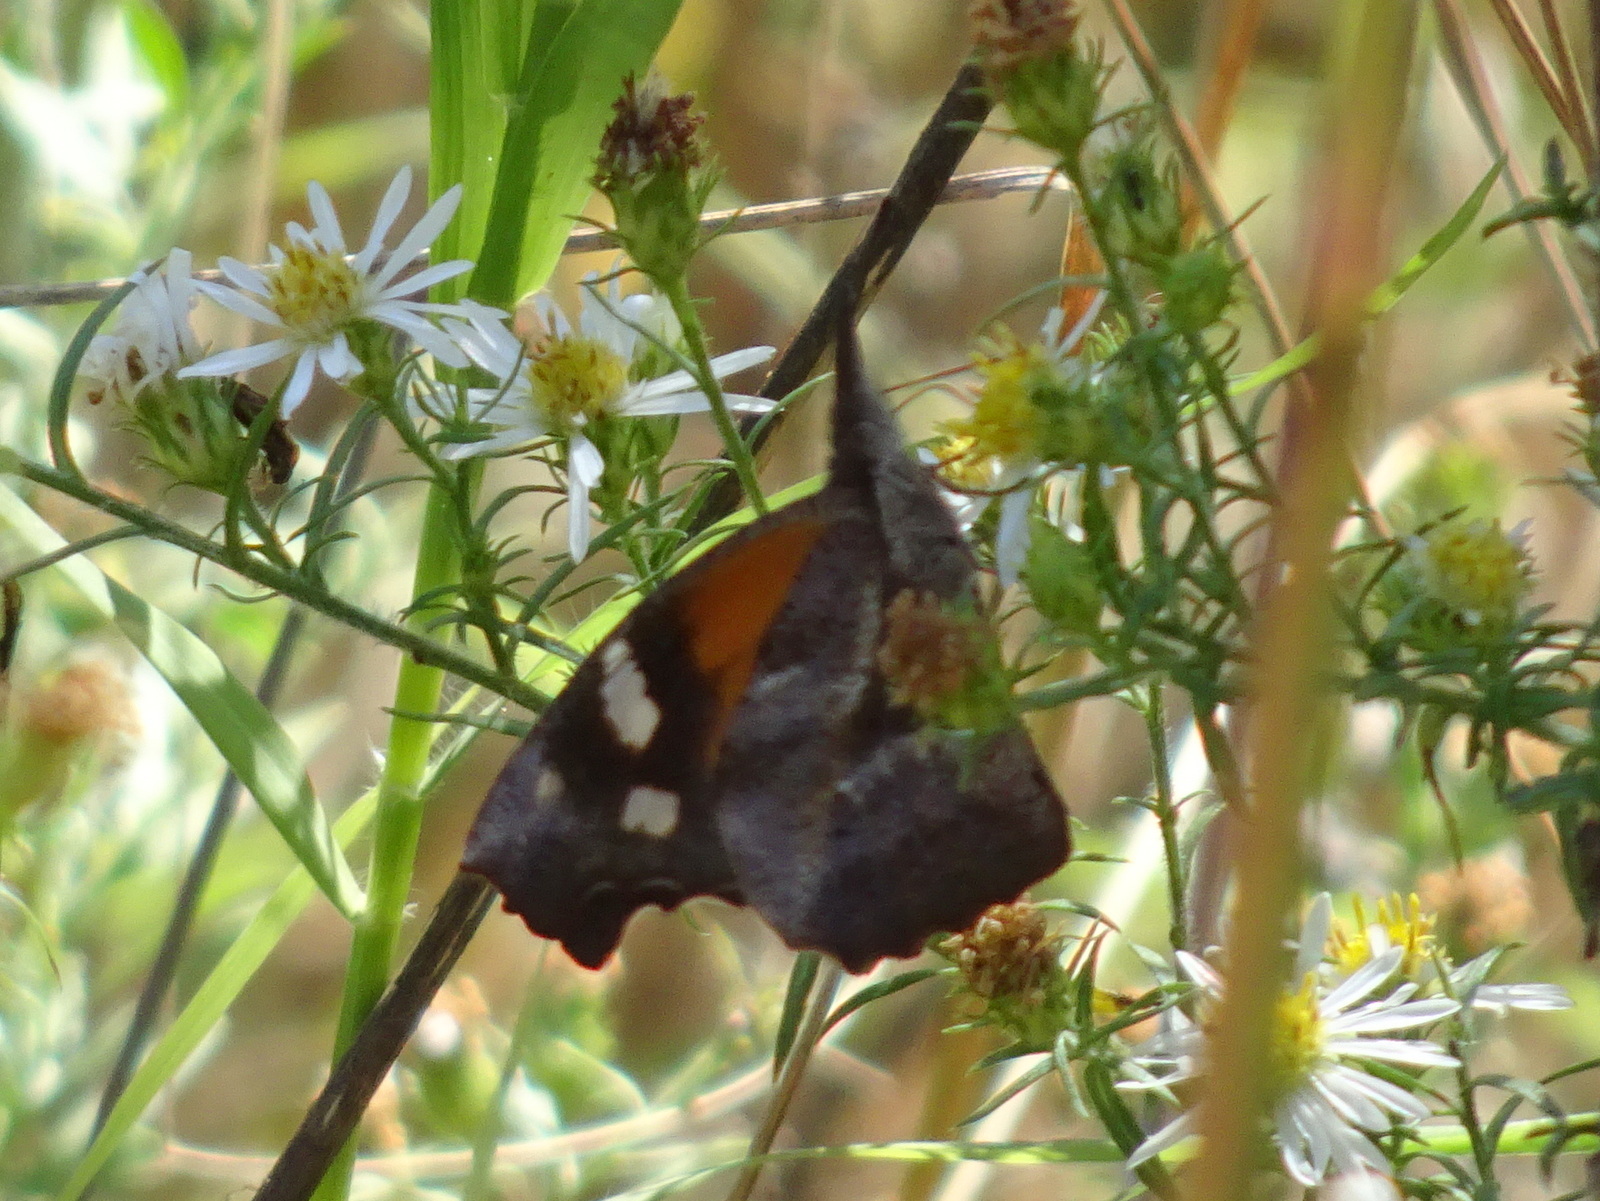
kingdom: Animalia
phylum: Arthropoda
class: Insecta
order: Lepidoptera
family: Nymphalidae
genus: Libytheana
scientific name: Libytheana carinenta
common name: American snout
